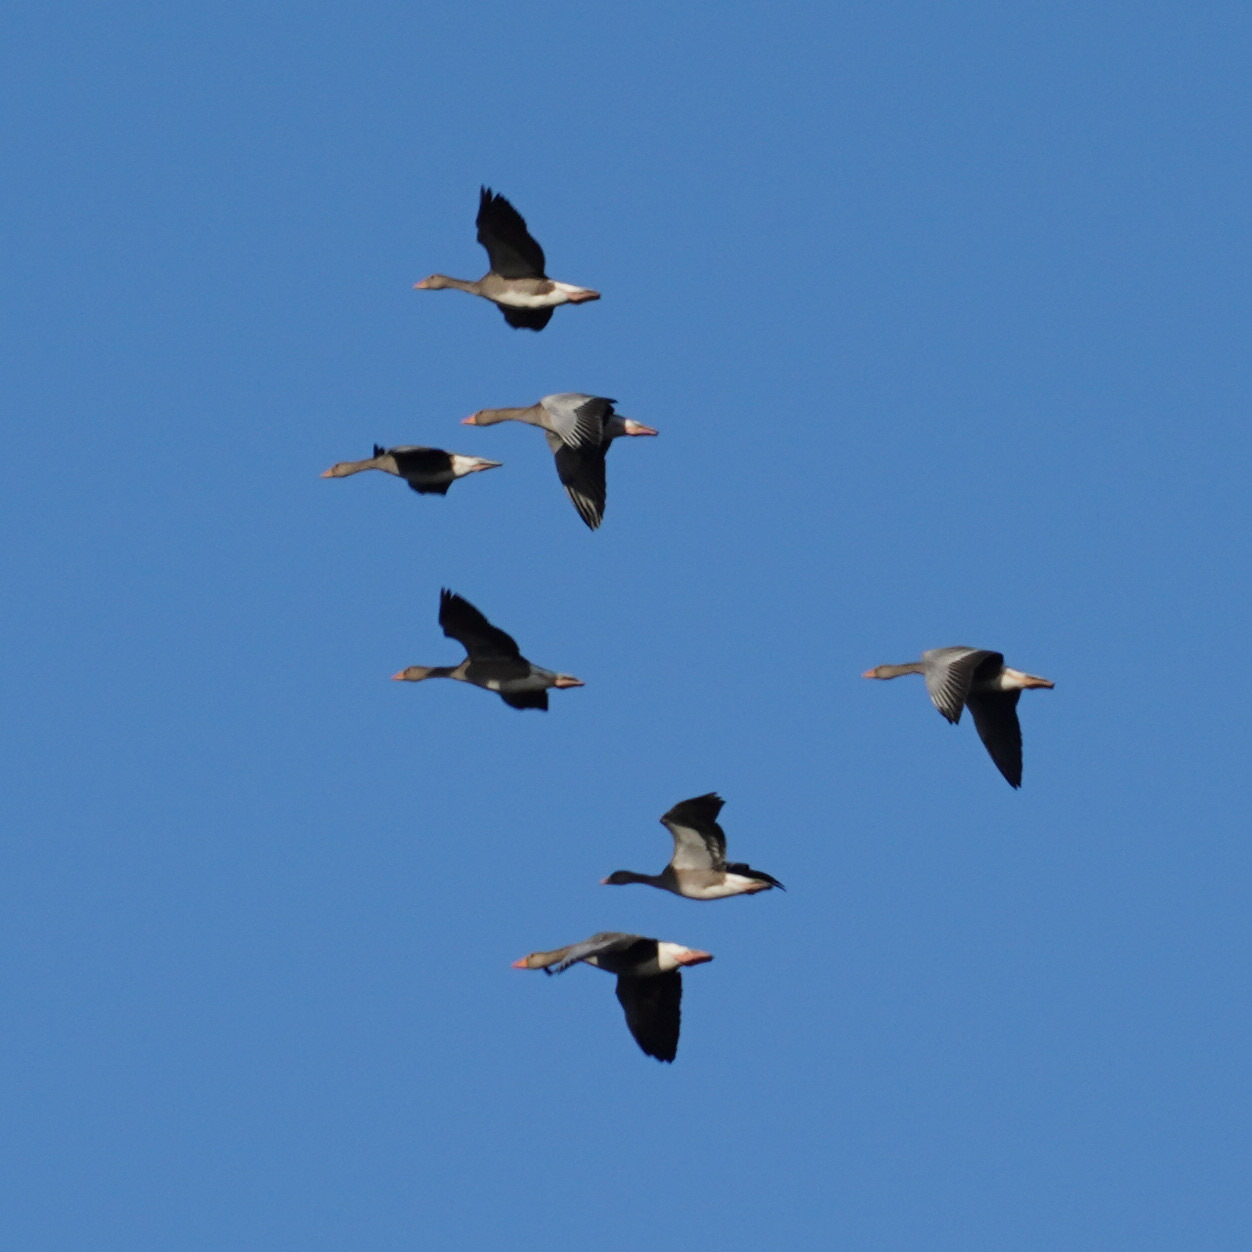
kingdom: Animalia
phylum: Chordata
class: Aves
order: Anseriformes
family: Anatidae
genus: Anser
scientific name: Anser anser
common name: Greylag goose
